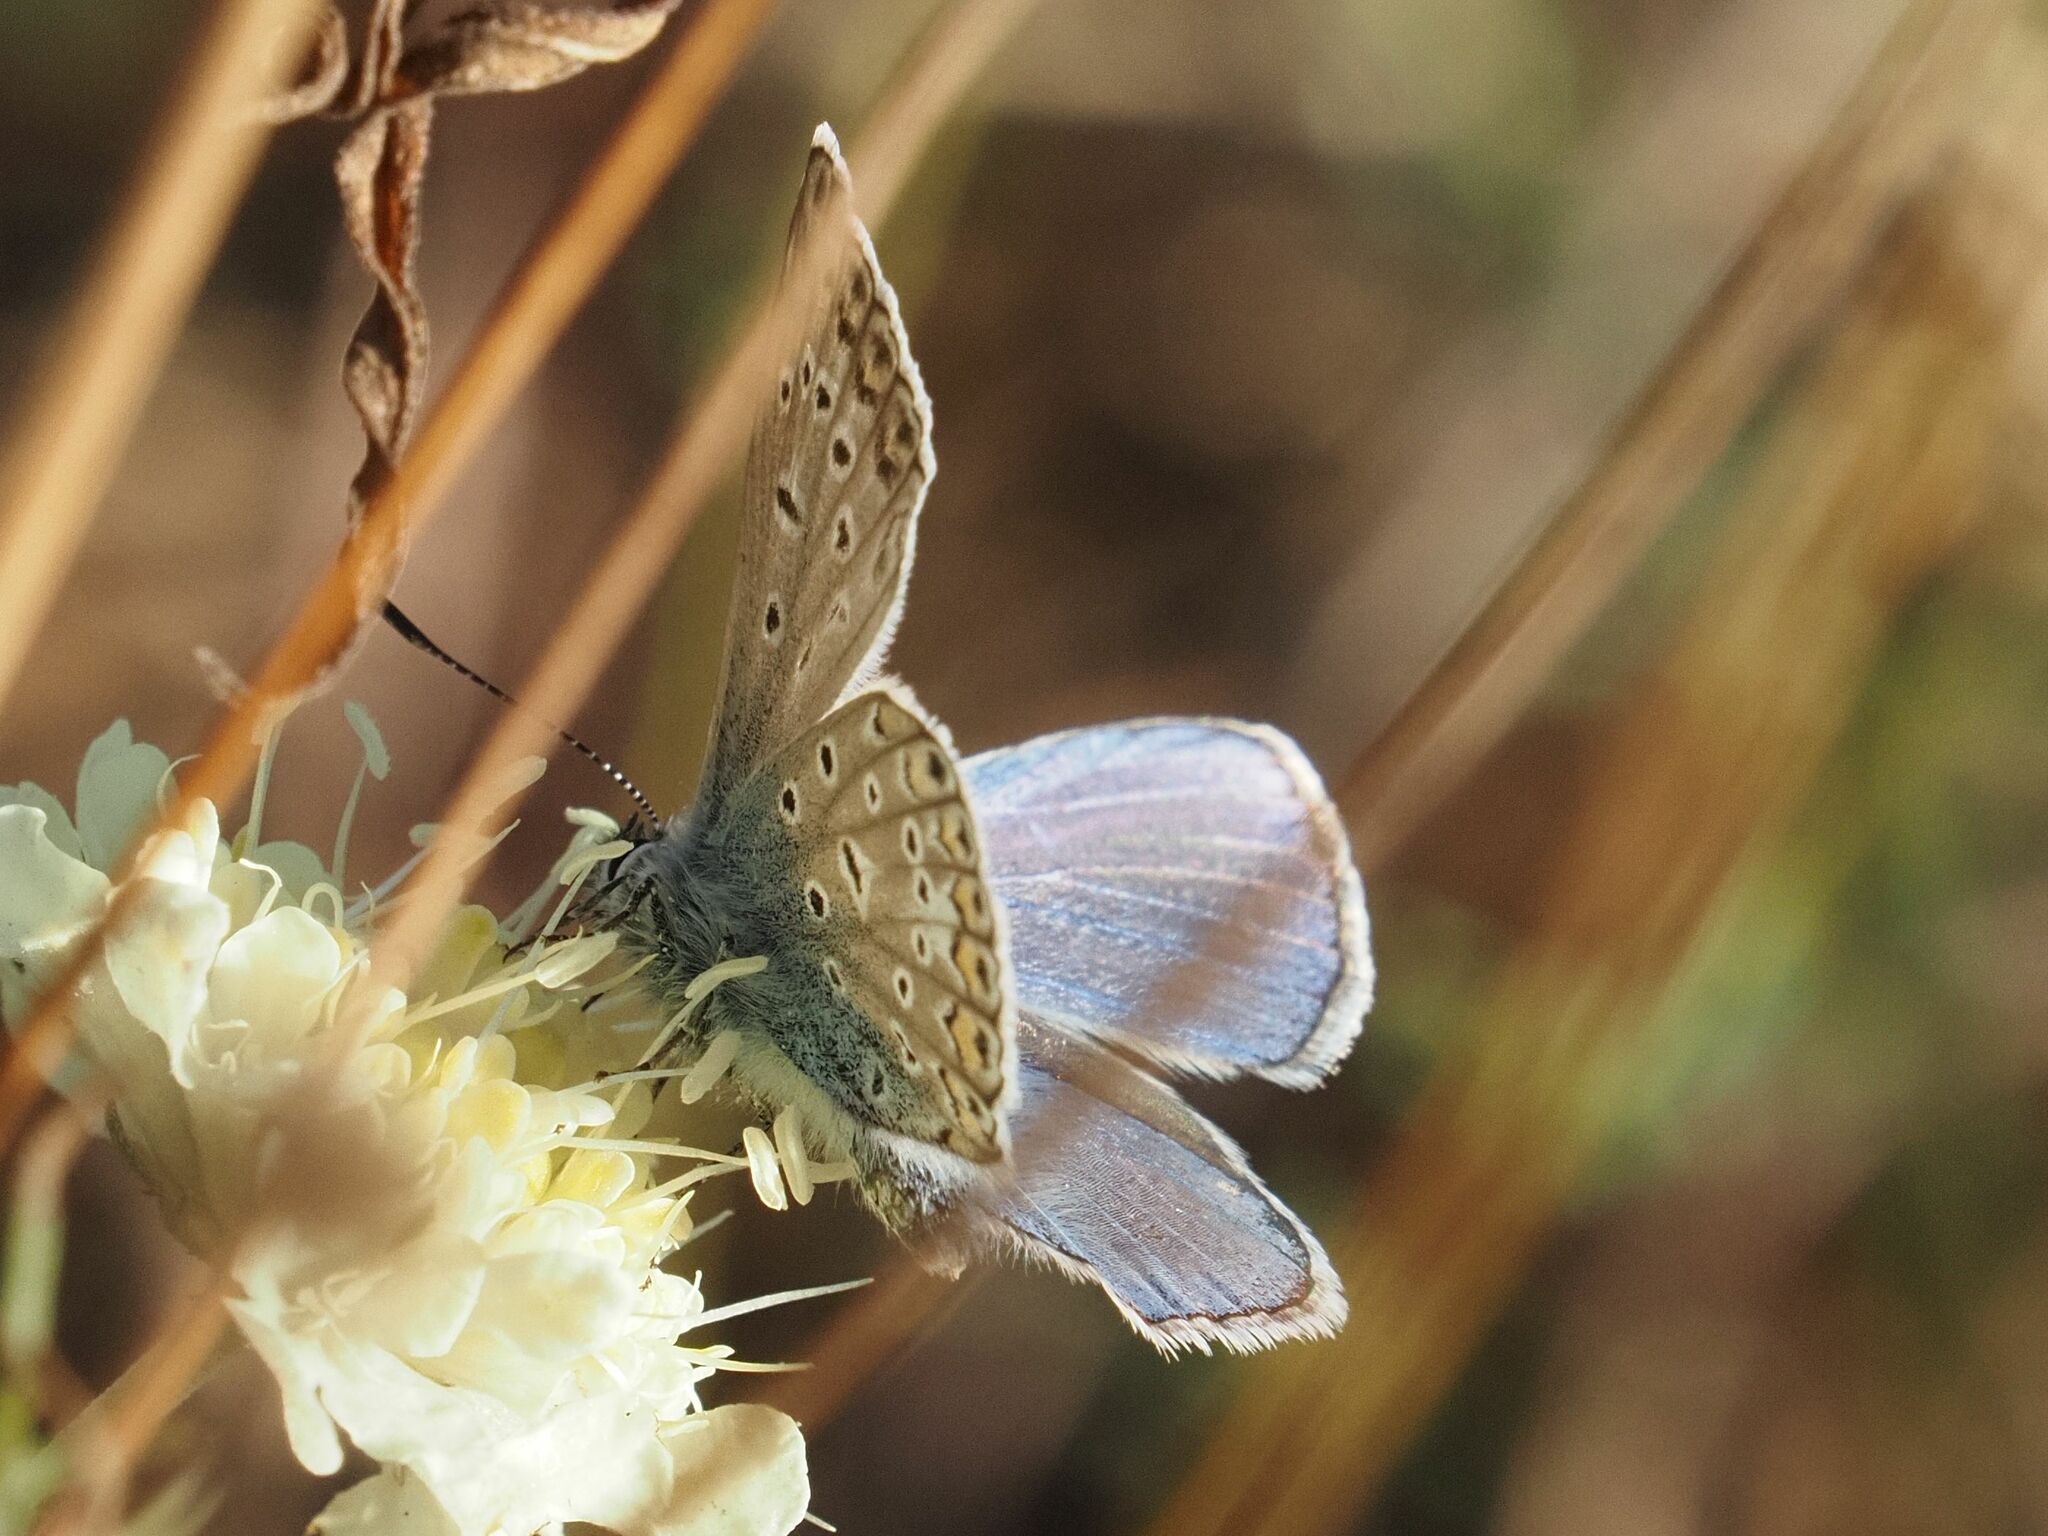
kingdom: Animalia
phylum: Arthropoda
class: Insecta
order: Lepidoptera
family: Lycaenidae
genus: Polyommatus
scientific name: Polyommatus icarus
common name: Common blue
